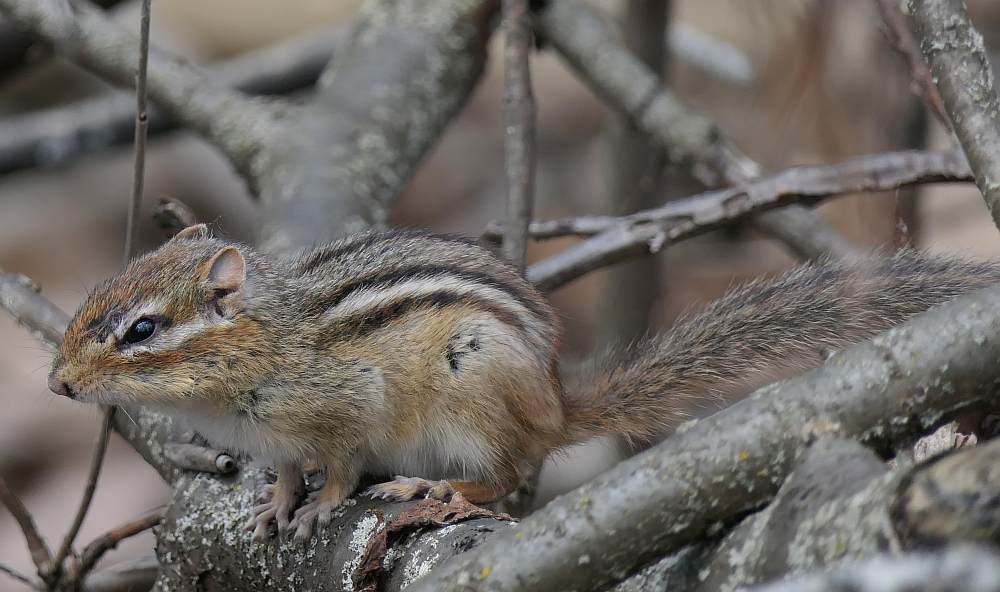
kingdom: Animalia
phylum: Chordata
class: Mammalia
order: Rodentia
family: Sciuridae
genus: Tamias
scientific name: Tamias striatus
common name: Eastern chipmunk
